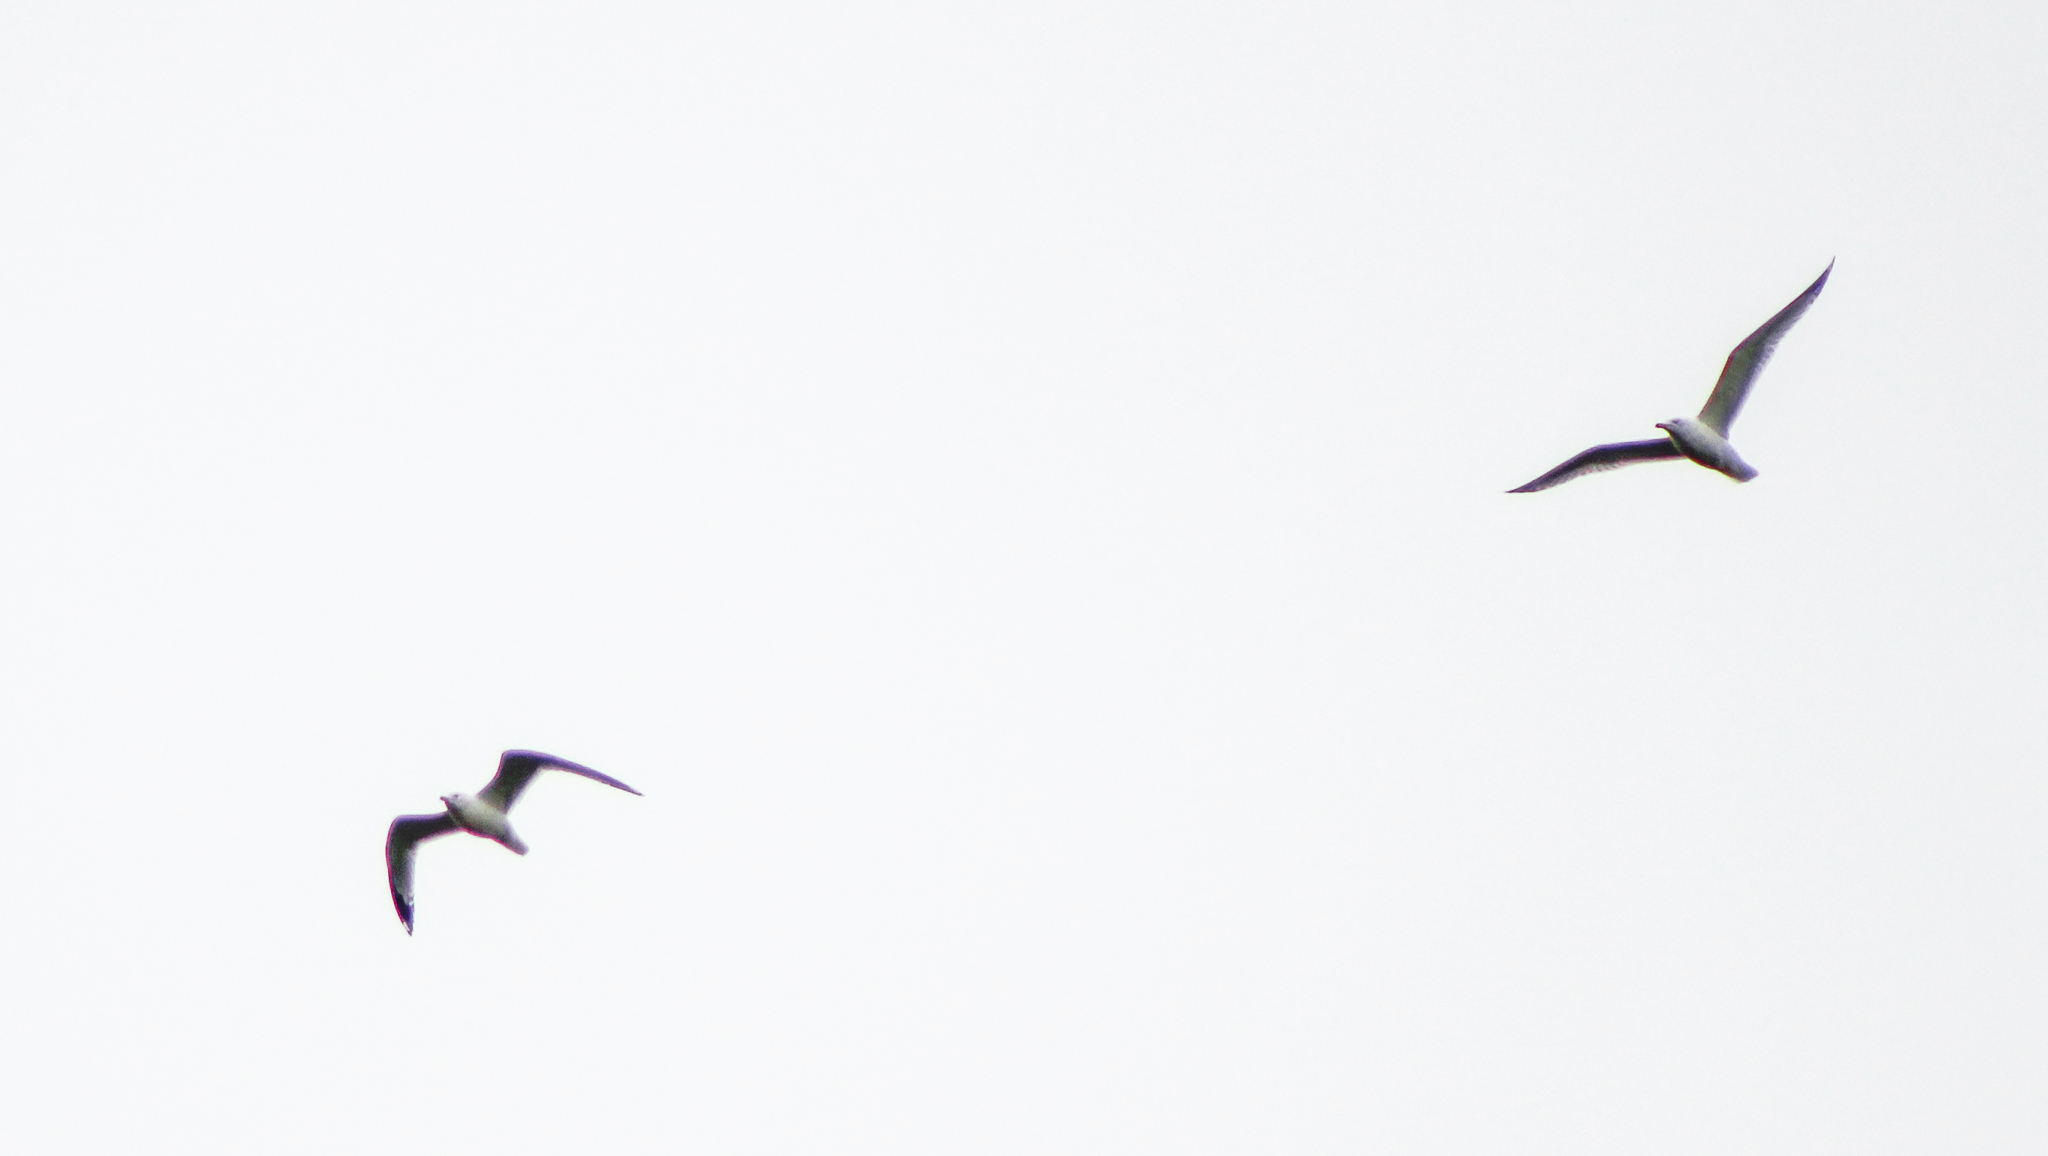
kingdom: Animalia
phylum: Chordata
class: Aves
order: Charadriiformes
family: Laridae
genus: Larus
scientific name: Larus delawarensis
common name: Ring-billed gull
